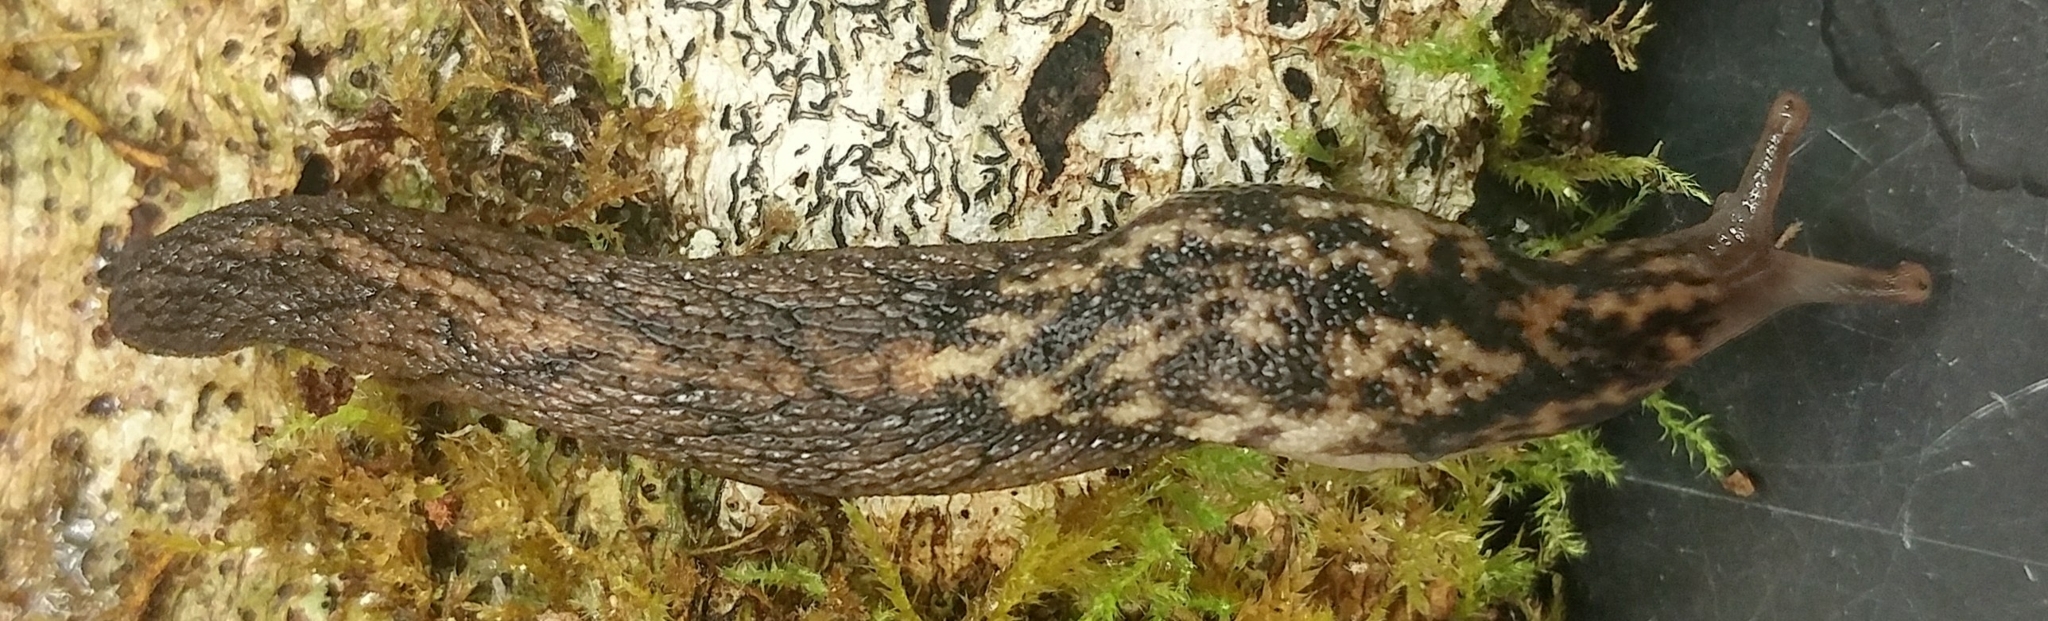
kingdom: Animalia
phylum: Mollusca
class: Gastropoda
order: Stylommatophora
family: Ariolimacidae
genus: Prophysaon
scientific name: Prophysaon andersonii
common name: Reticulate taildropper
